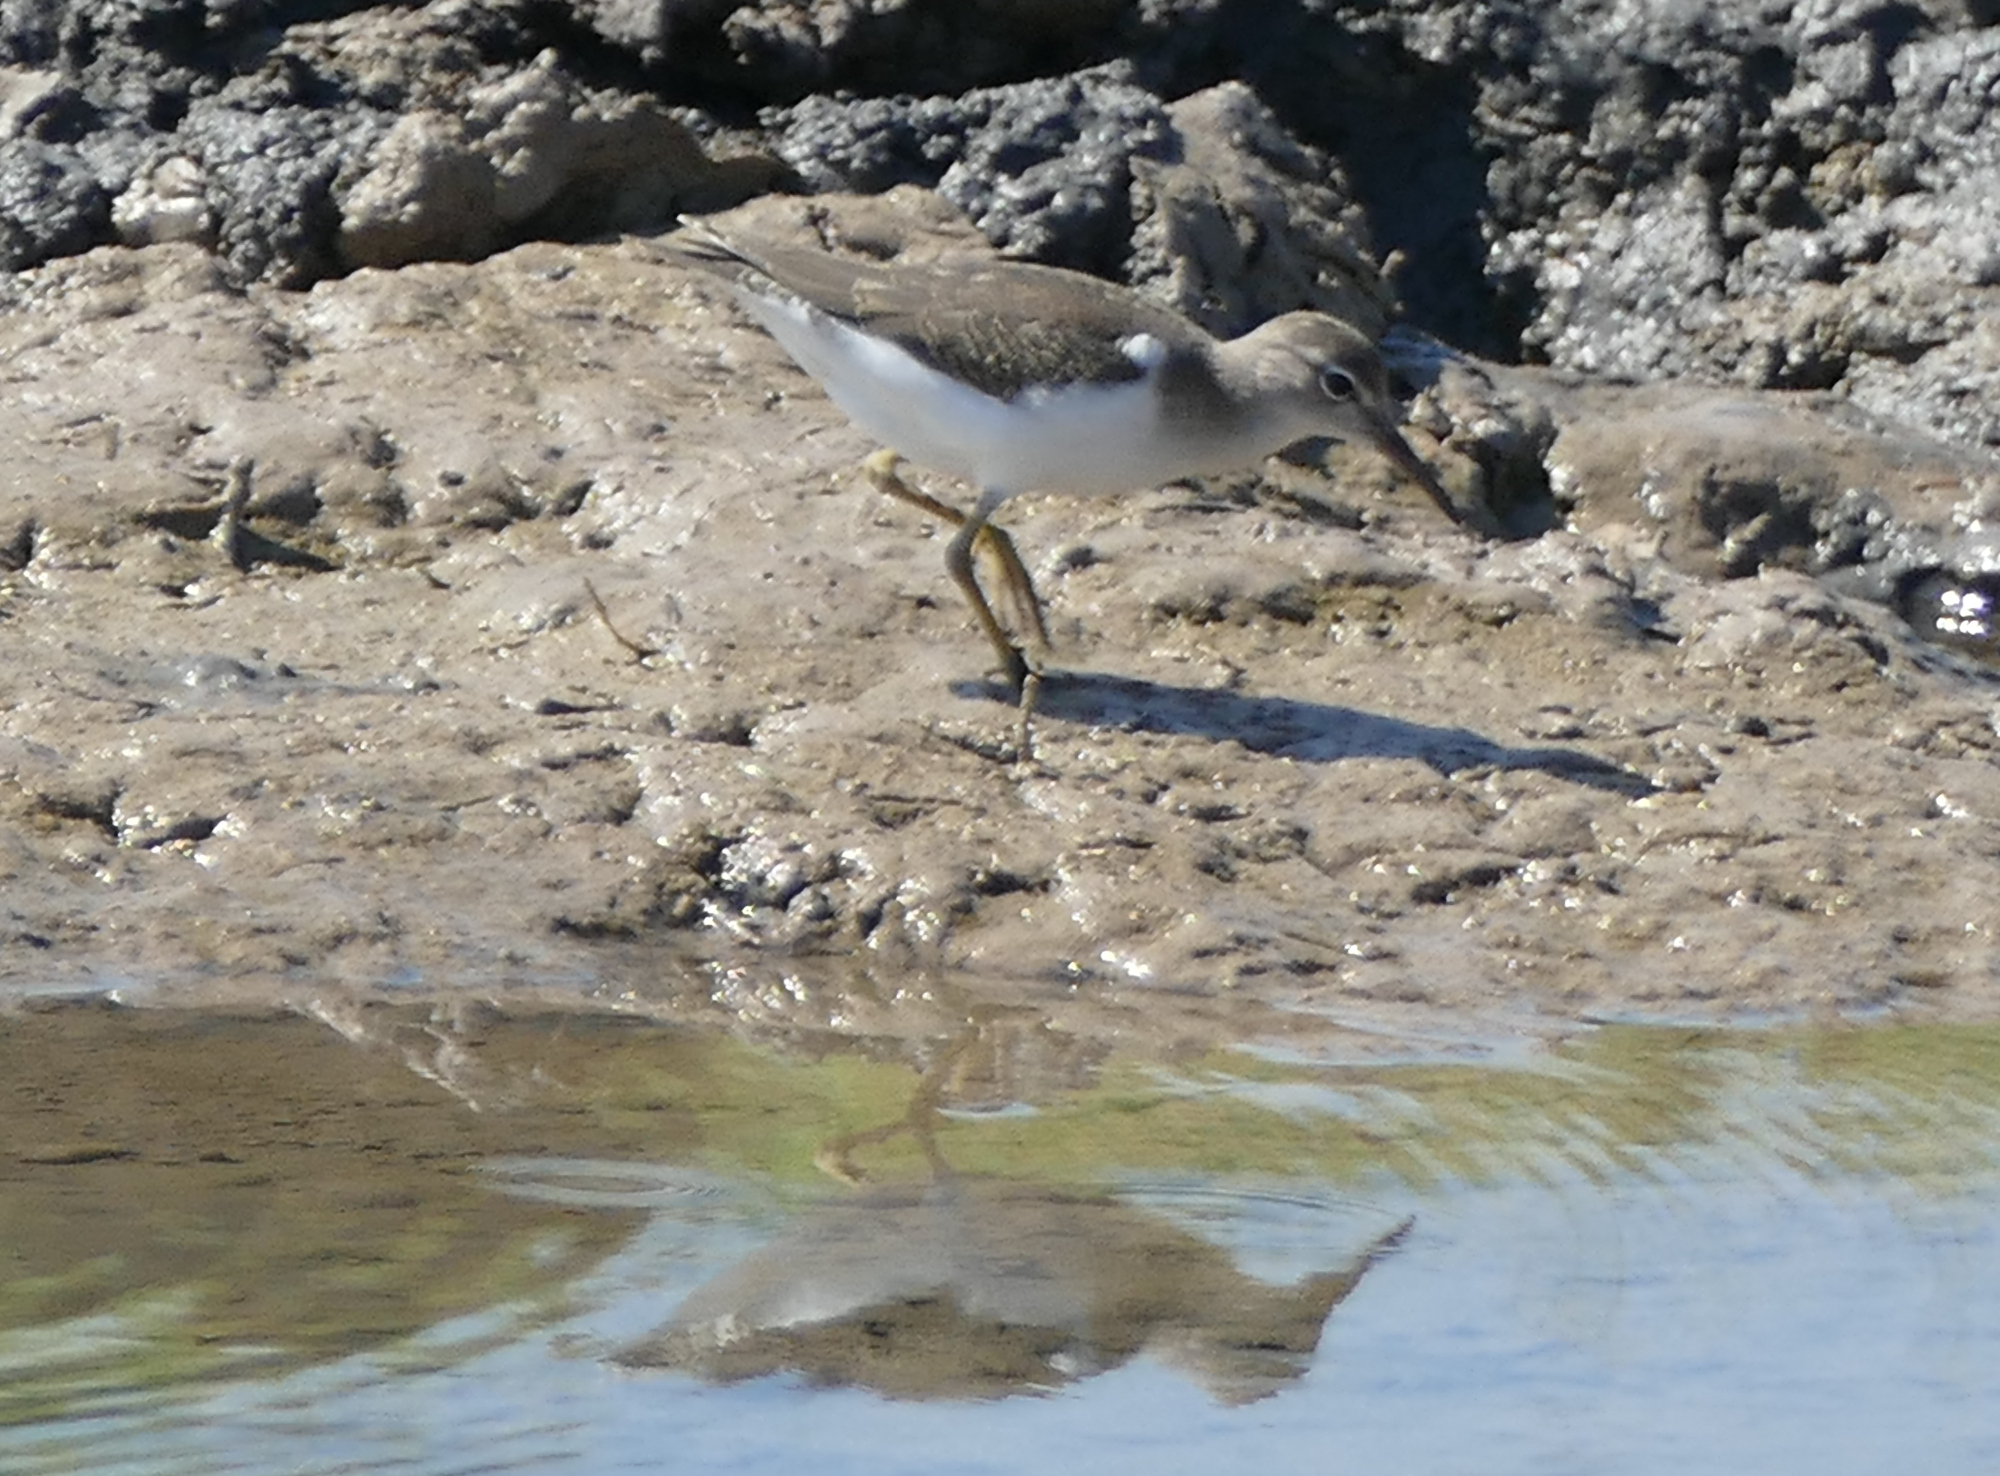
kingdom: Animalia
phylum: Chordata
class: Aves
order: Charadriiformes
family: Scolopacidae
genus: Actitis
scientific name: Actitis macularius
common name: Spotted sandpiper
